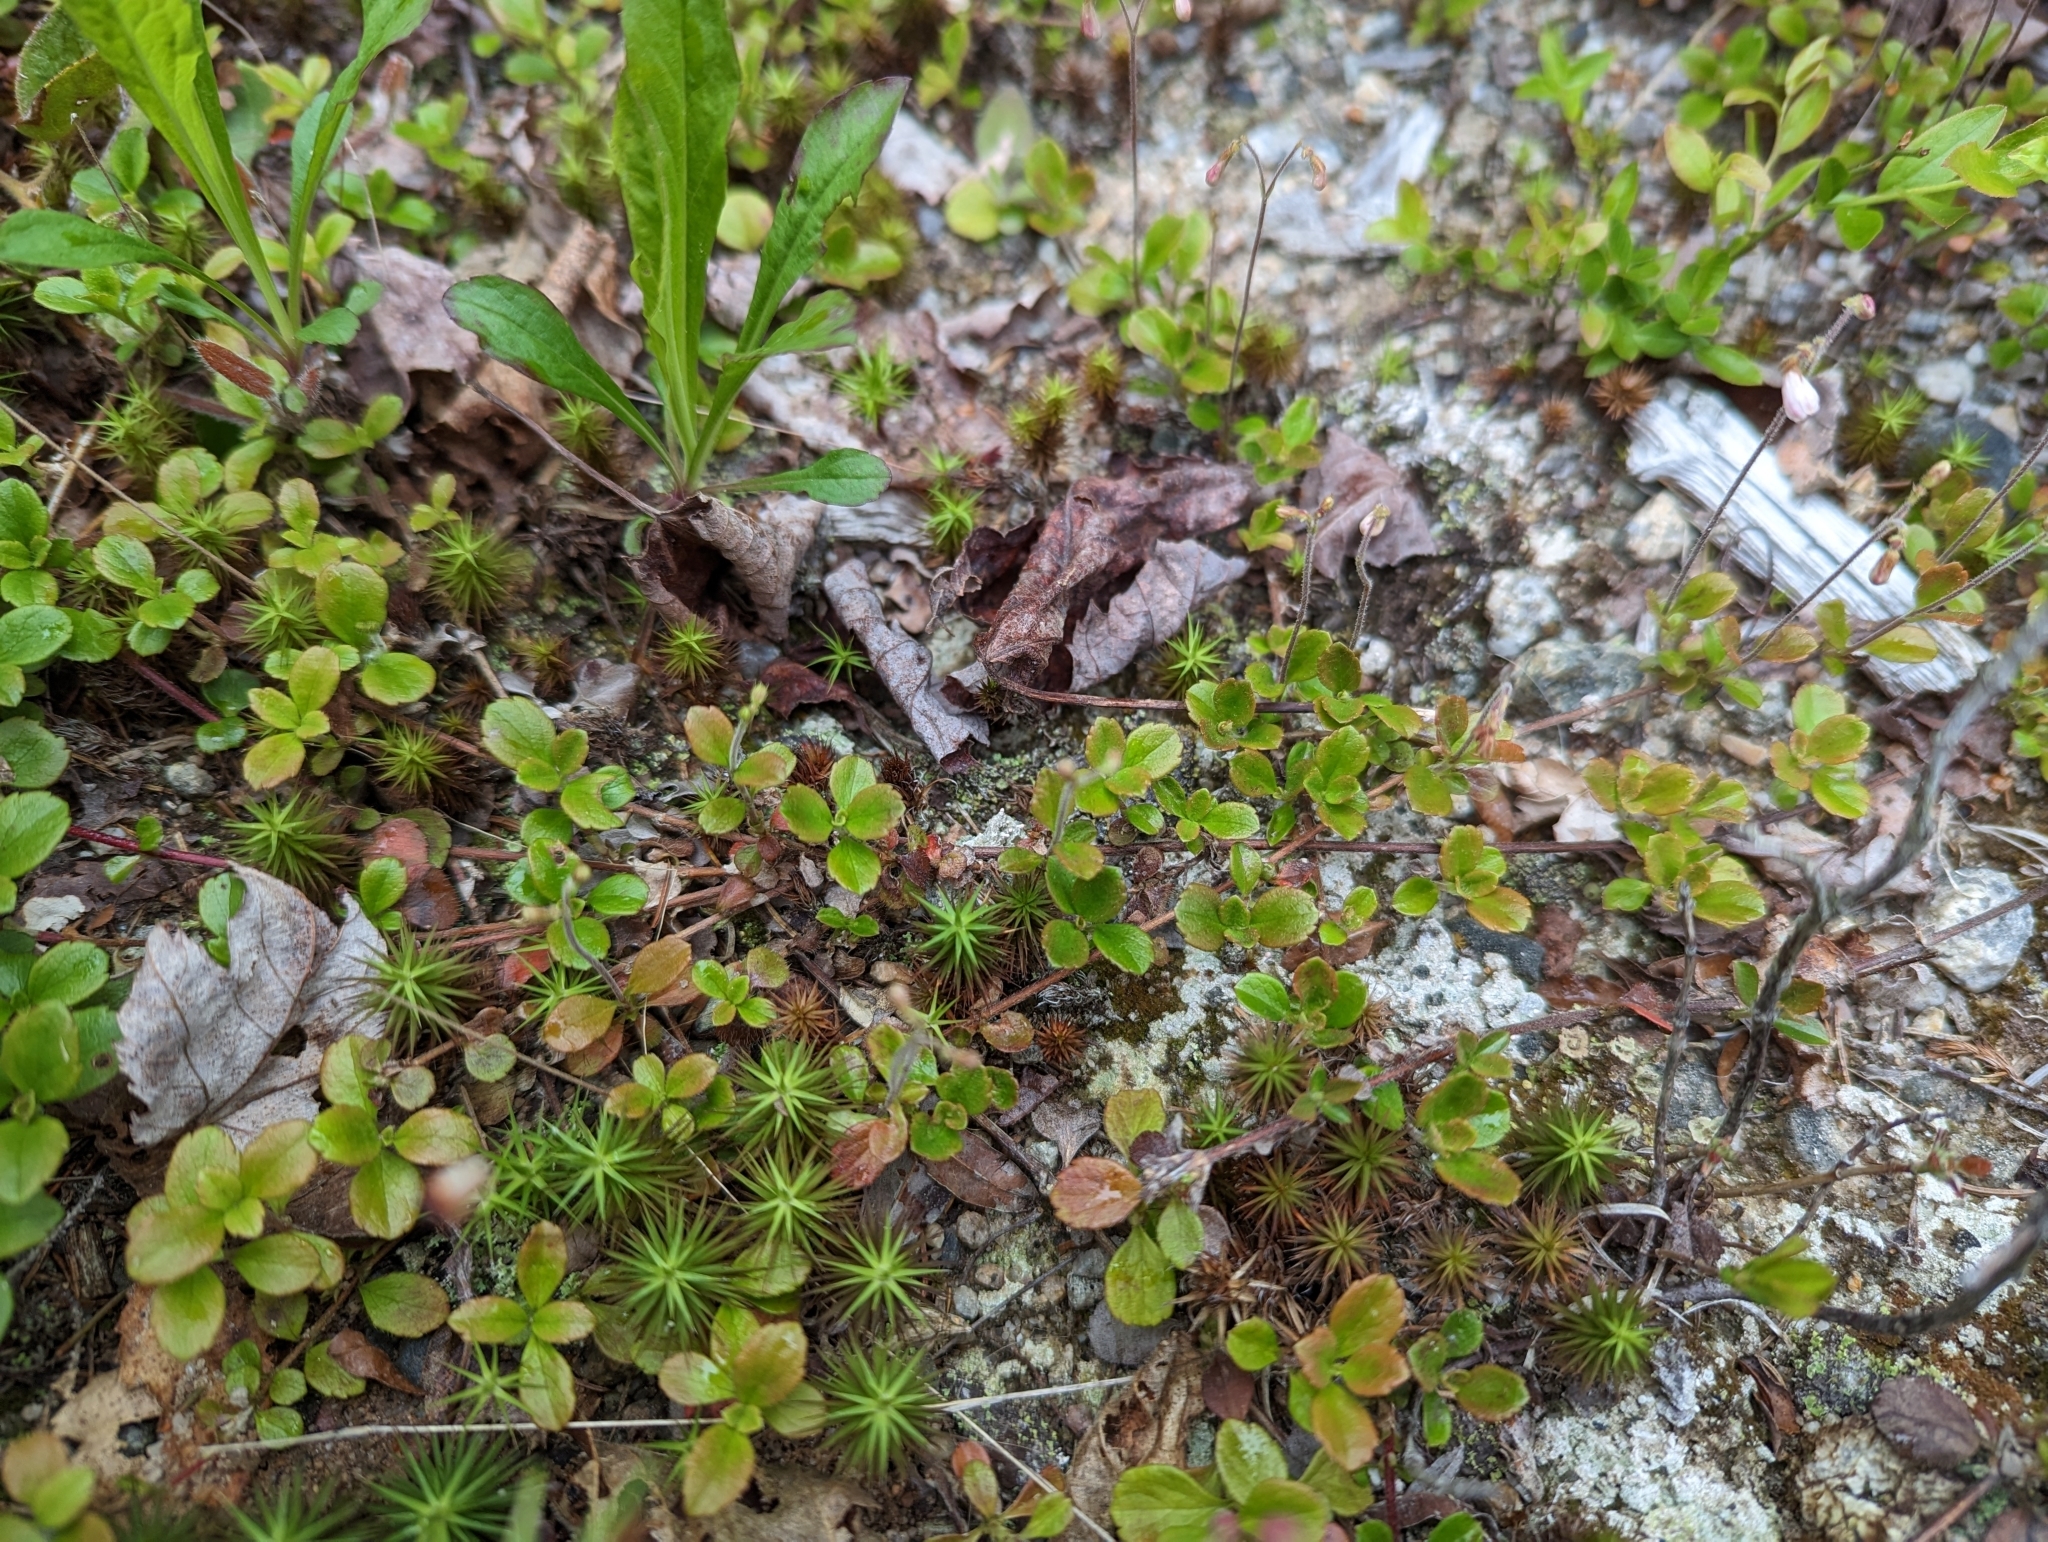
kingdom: Plantae
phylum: Tracheophyta
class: Magnoliopsida
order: Dipsacales
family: Caprifoliaceae
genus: Linnaea
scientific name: Linnaea borealis
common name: Twinflower
